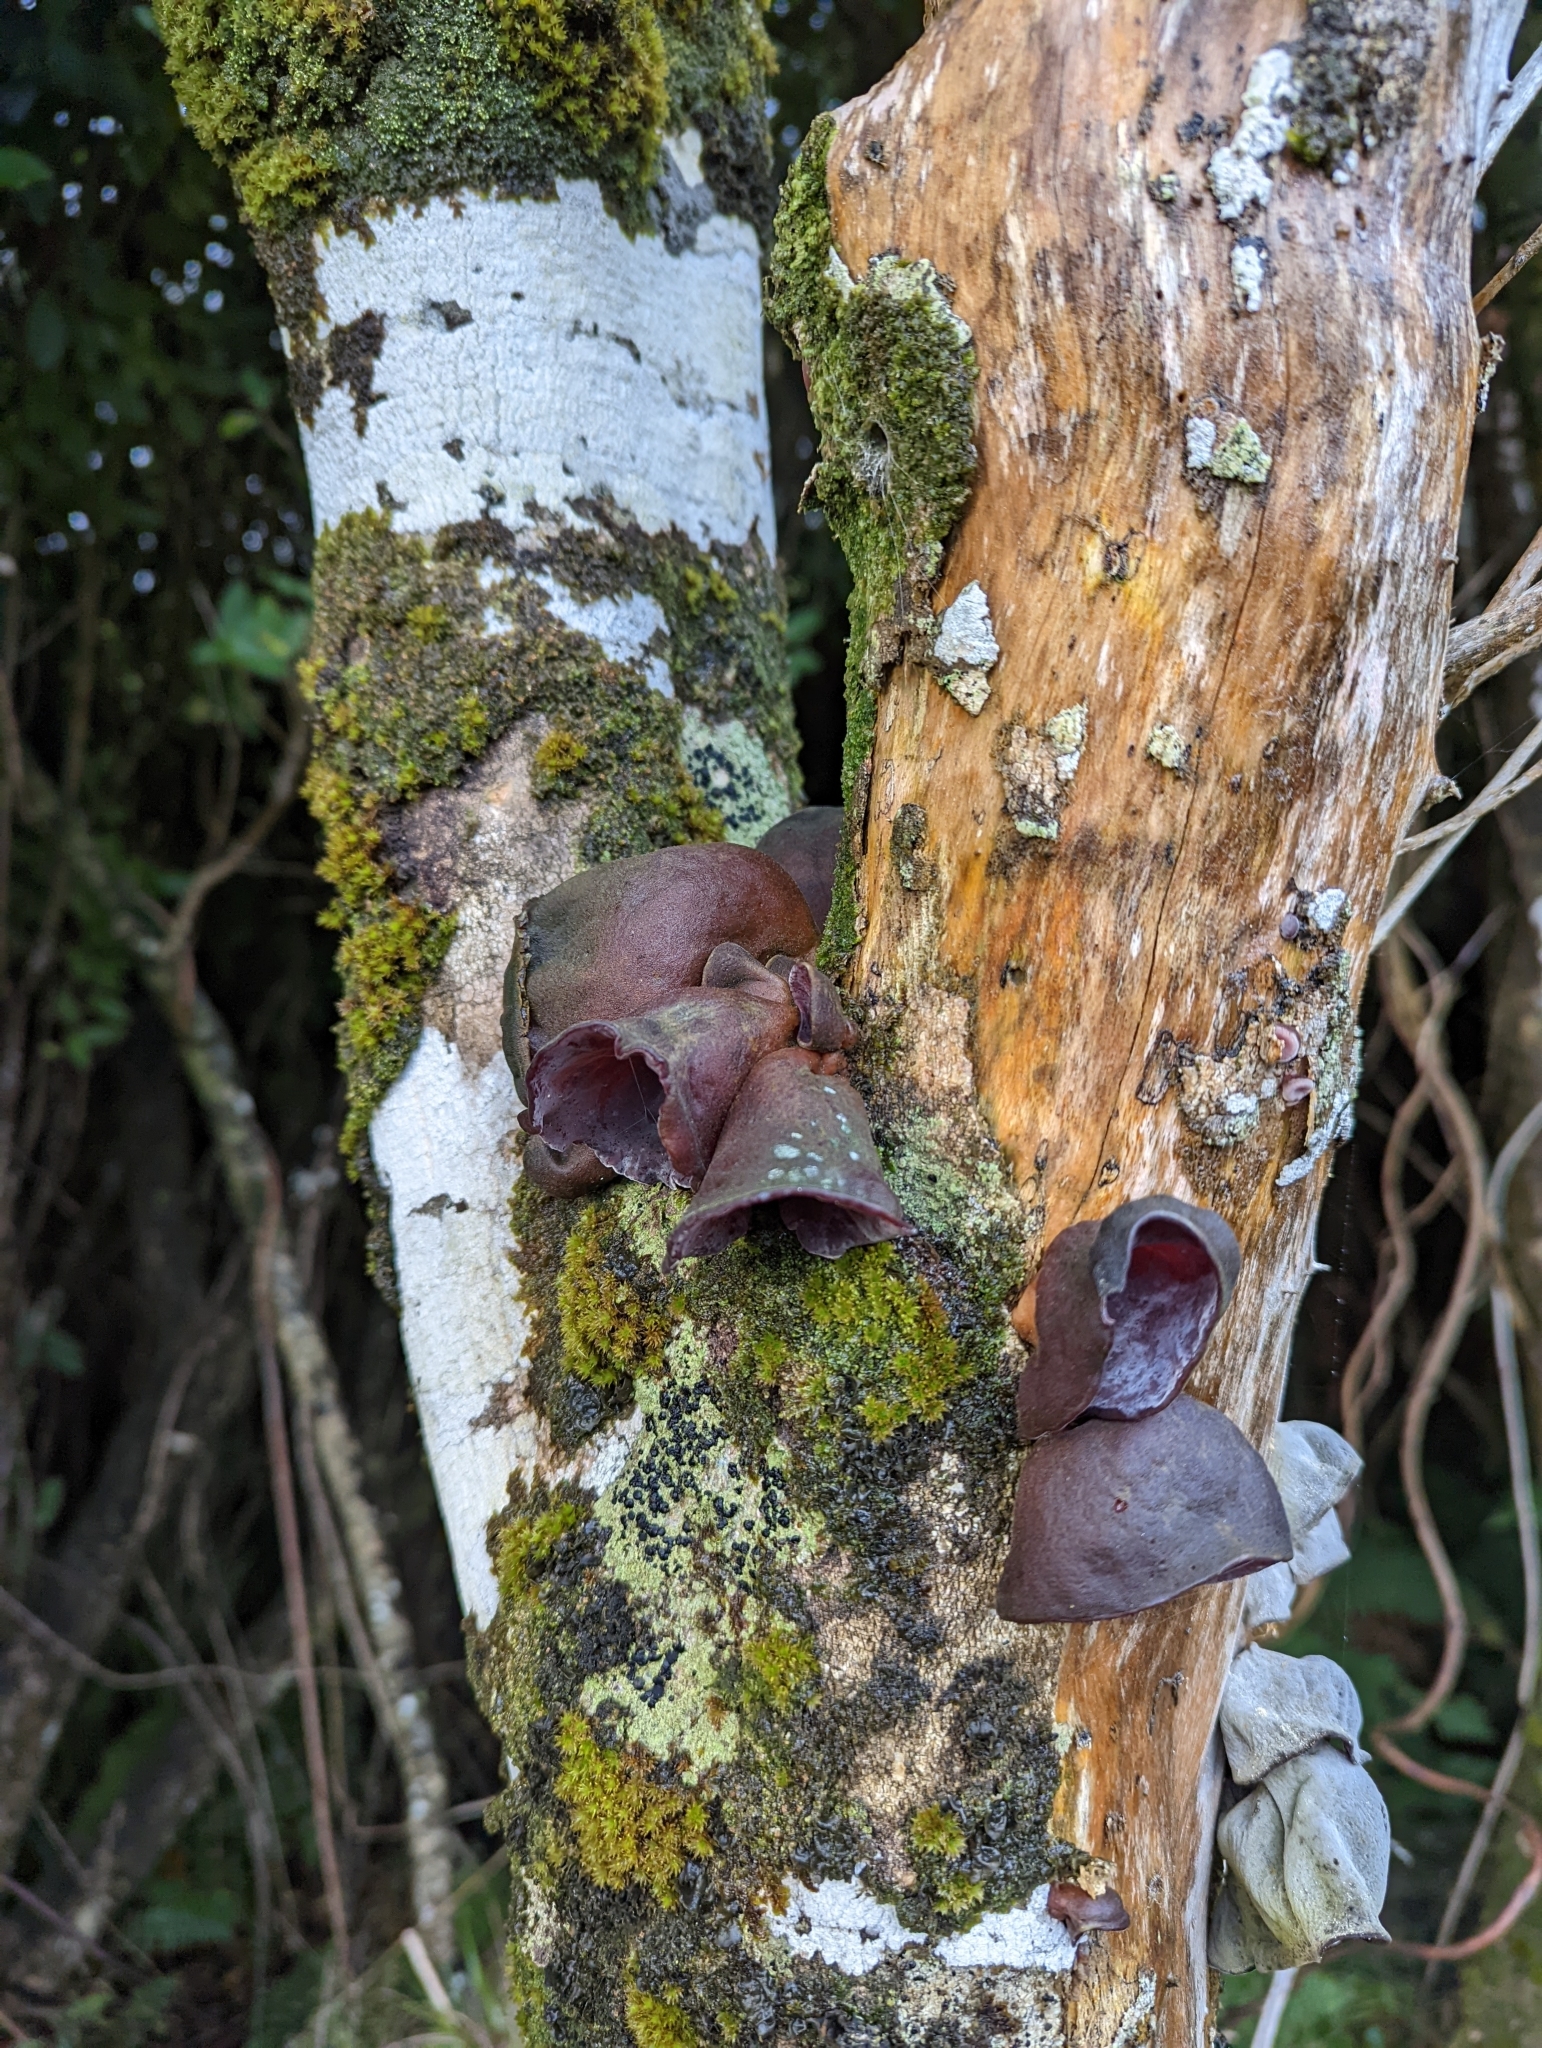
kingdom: Fungi
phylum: Basidiomycota
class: Agaricomycetes
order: Auriculariales
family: Auriculariaceae
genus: Auricularia
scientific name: Auricularia cornea
